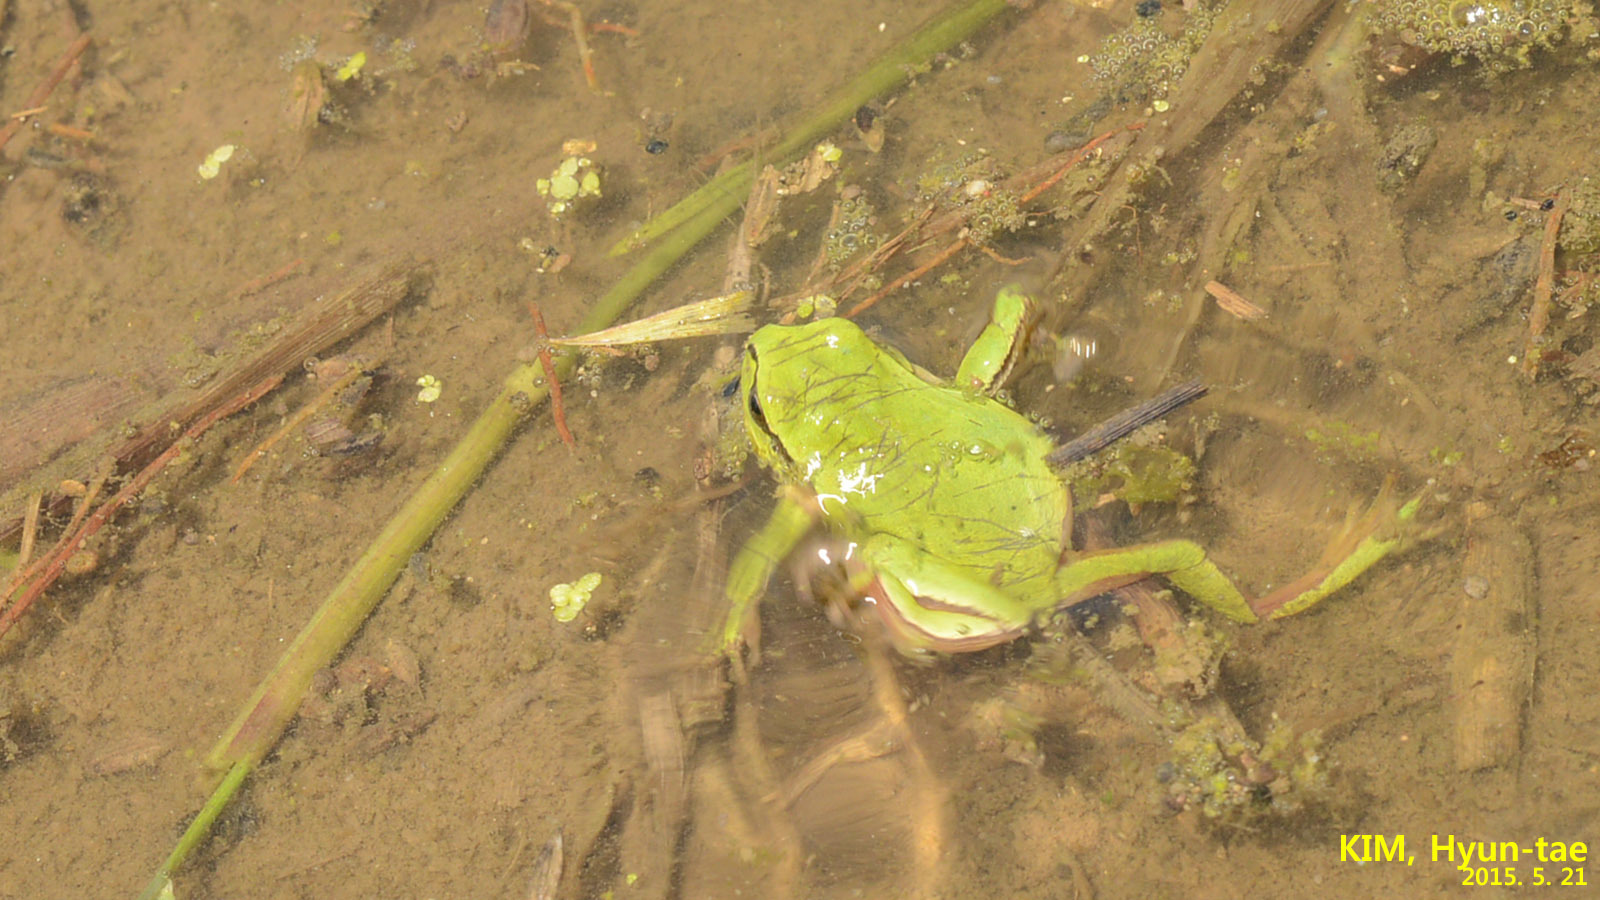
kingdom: Animalia
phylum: Chordata
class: Amphibia
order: Anura
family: Hylidae
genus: Dryophytes
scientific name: Dryophytes immaculatus
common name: North china treefrog
